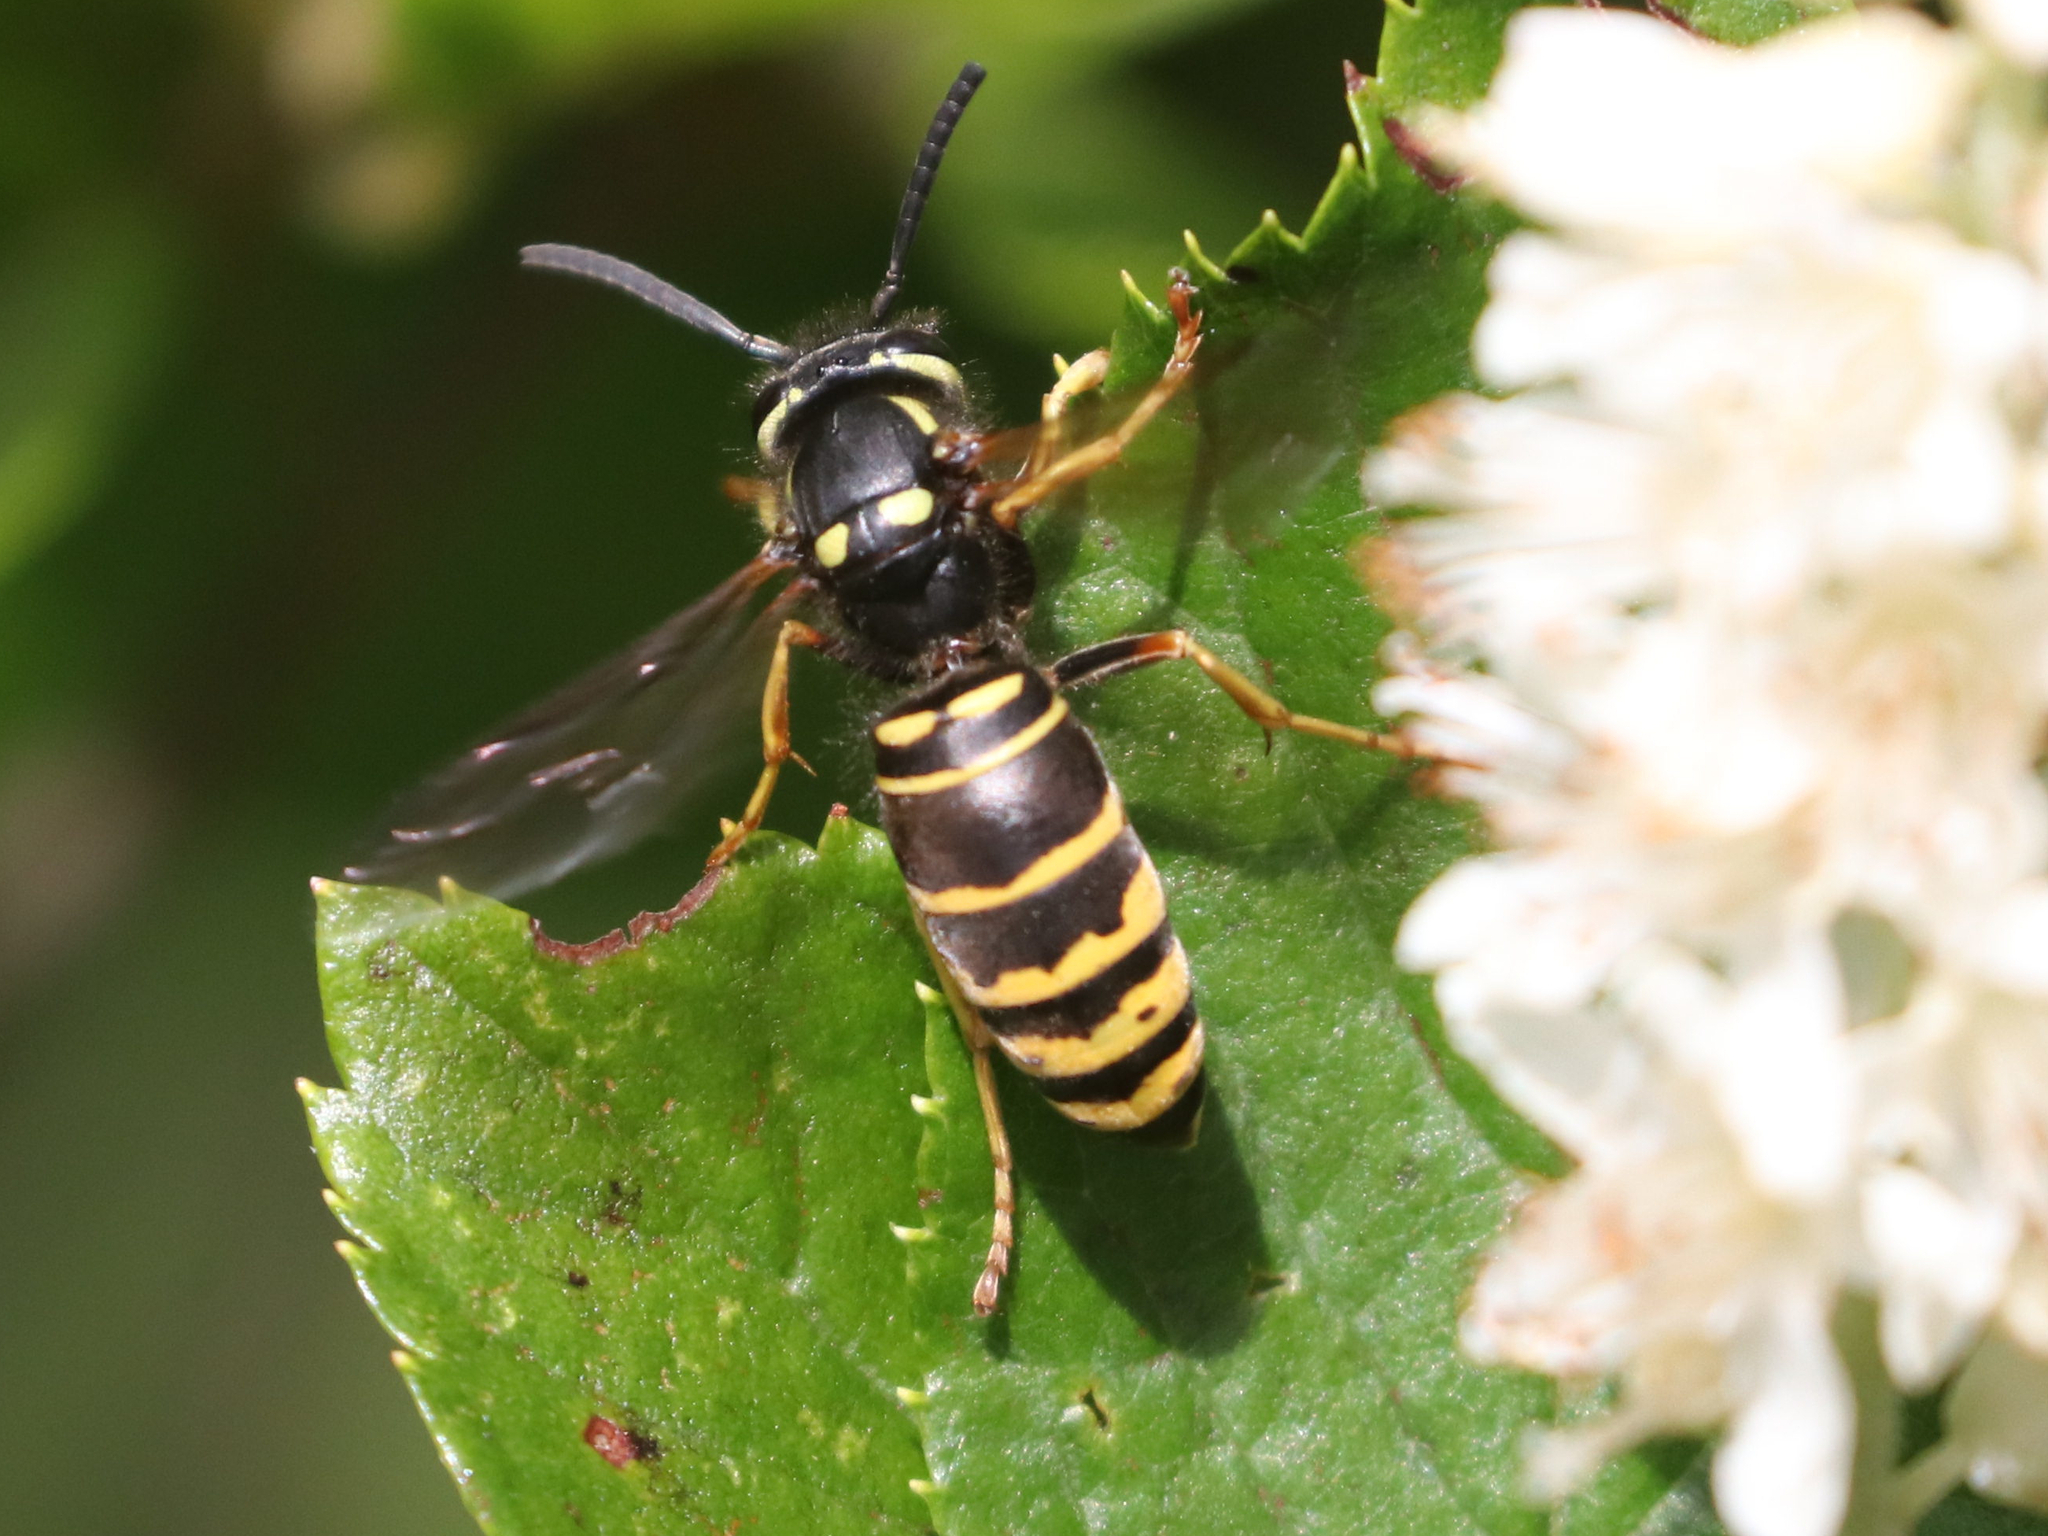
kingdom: Animalia
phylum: Arthropoda
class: Insecta
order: Hymenoptera
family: Vespidae
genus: Vespula
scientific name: Vespula vidua
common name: Widow yellowjacket
